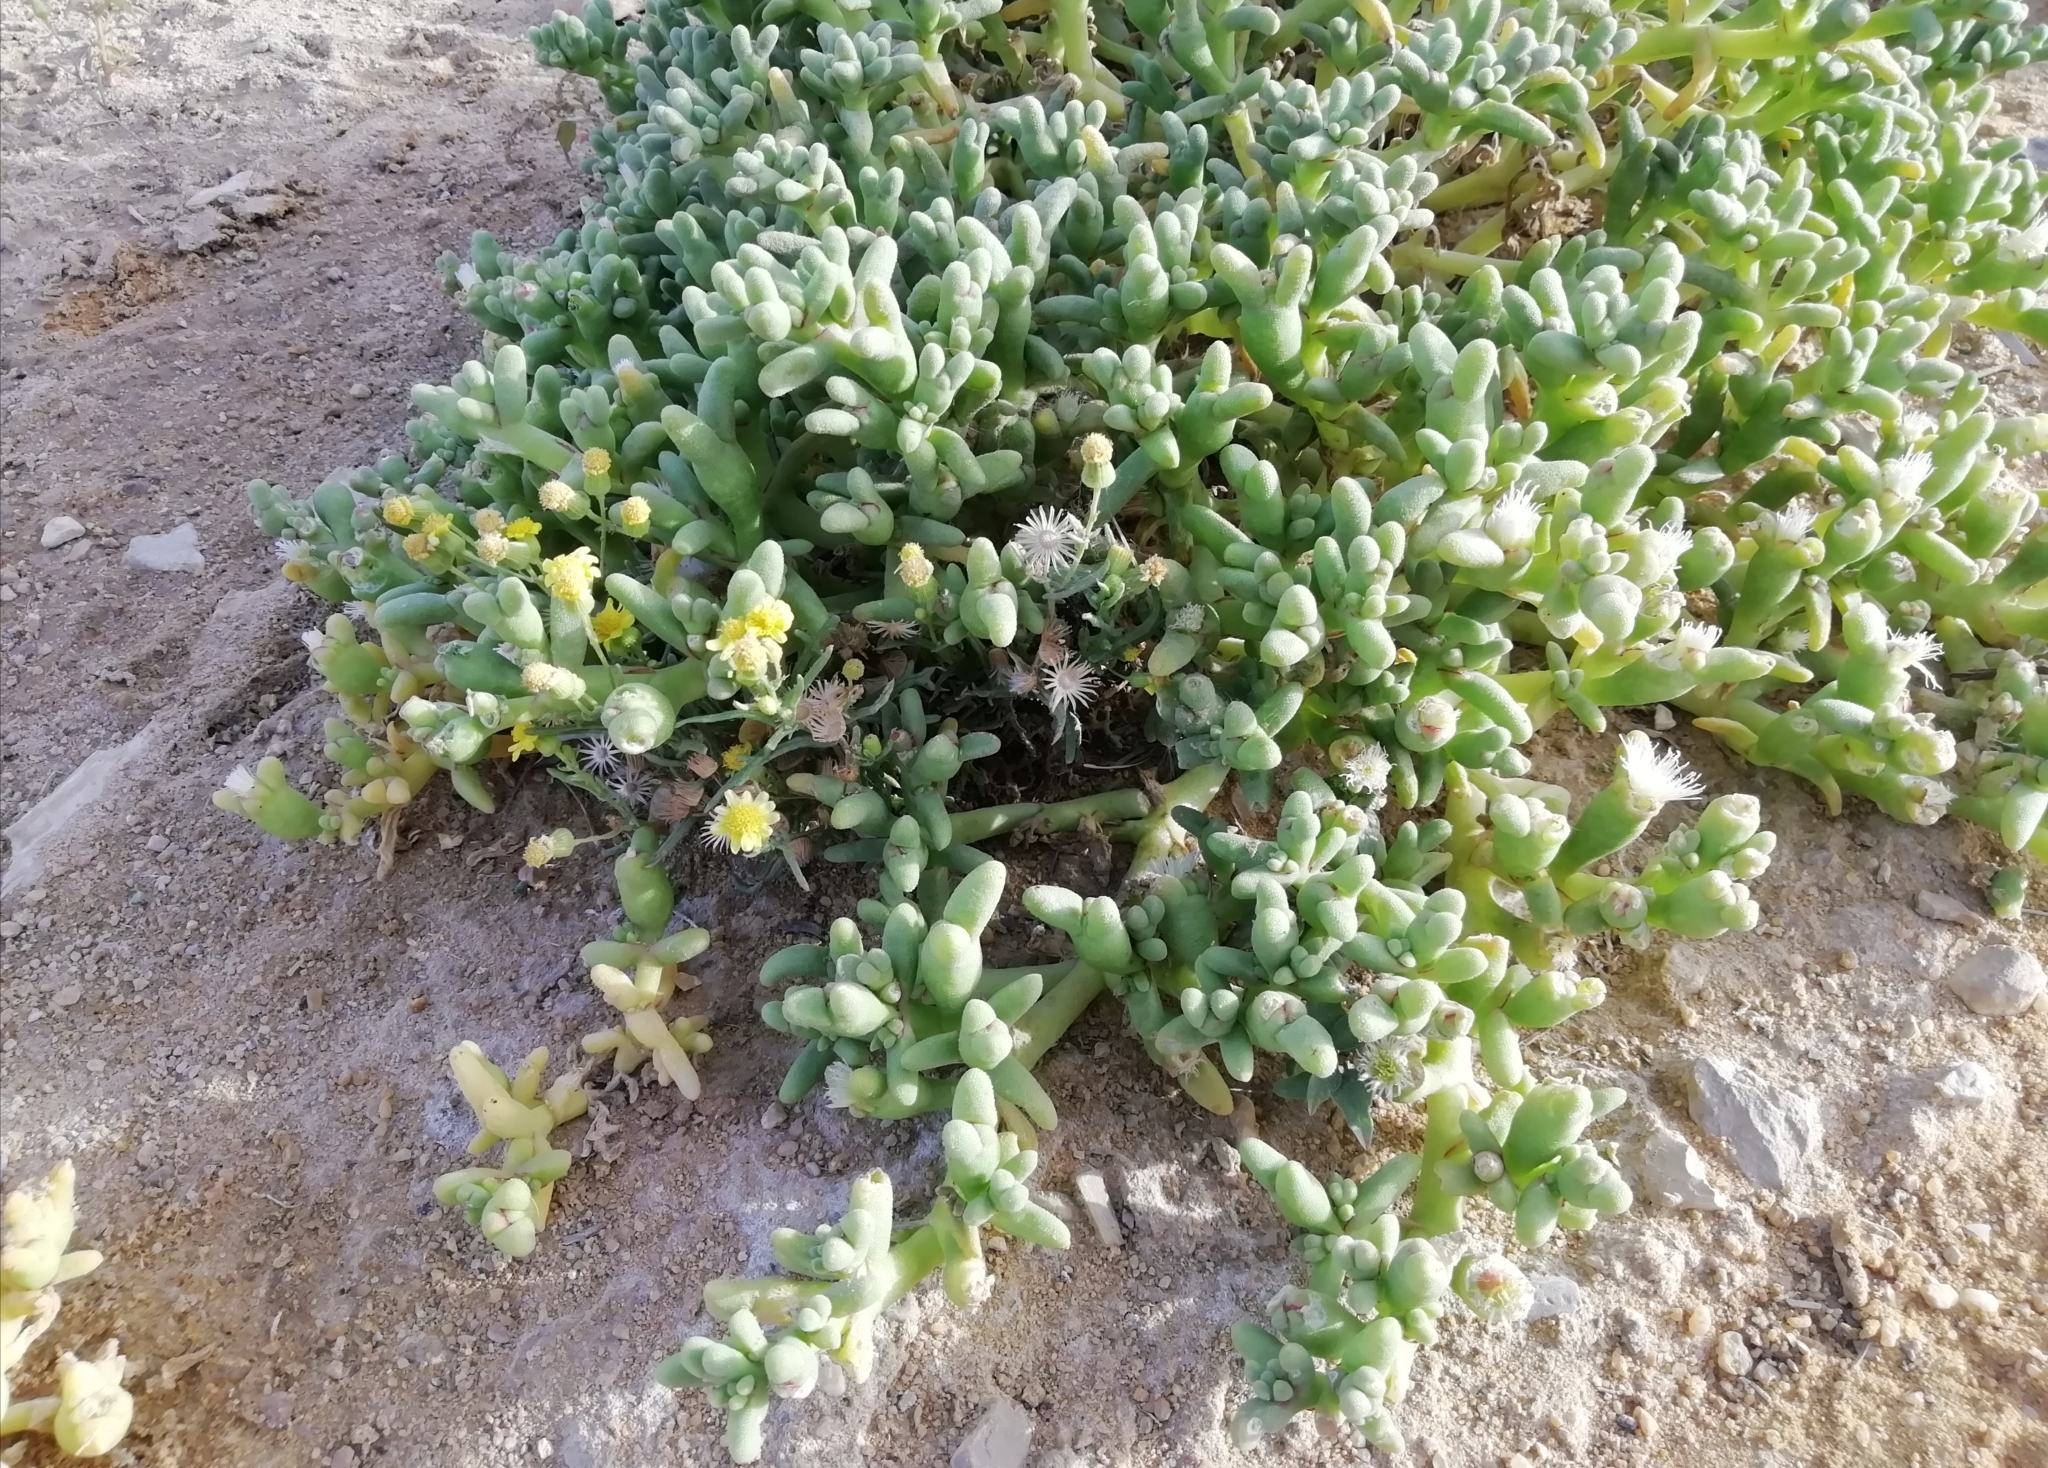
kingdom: Plantae
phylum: Tracheophyta
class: Magnoliopsida
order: Caryophyllales
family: Aizoaceae
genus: Mesembryanthemum
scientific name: Mesembryanthemum cryptanthum
